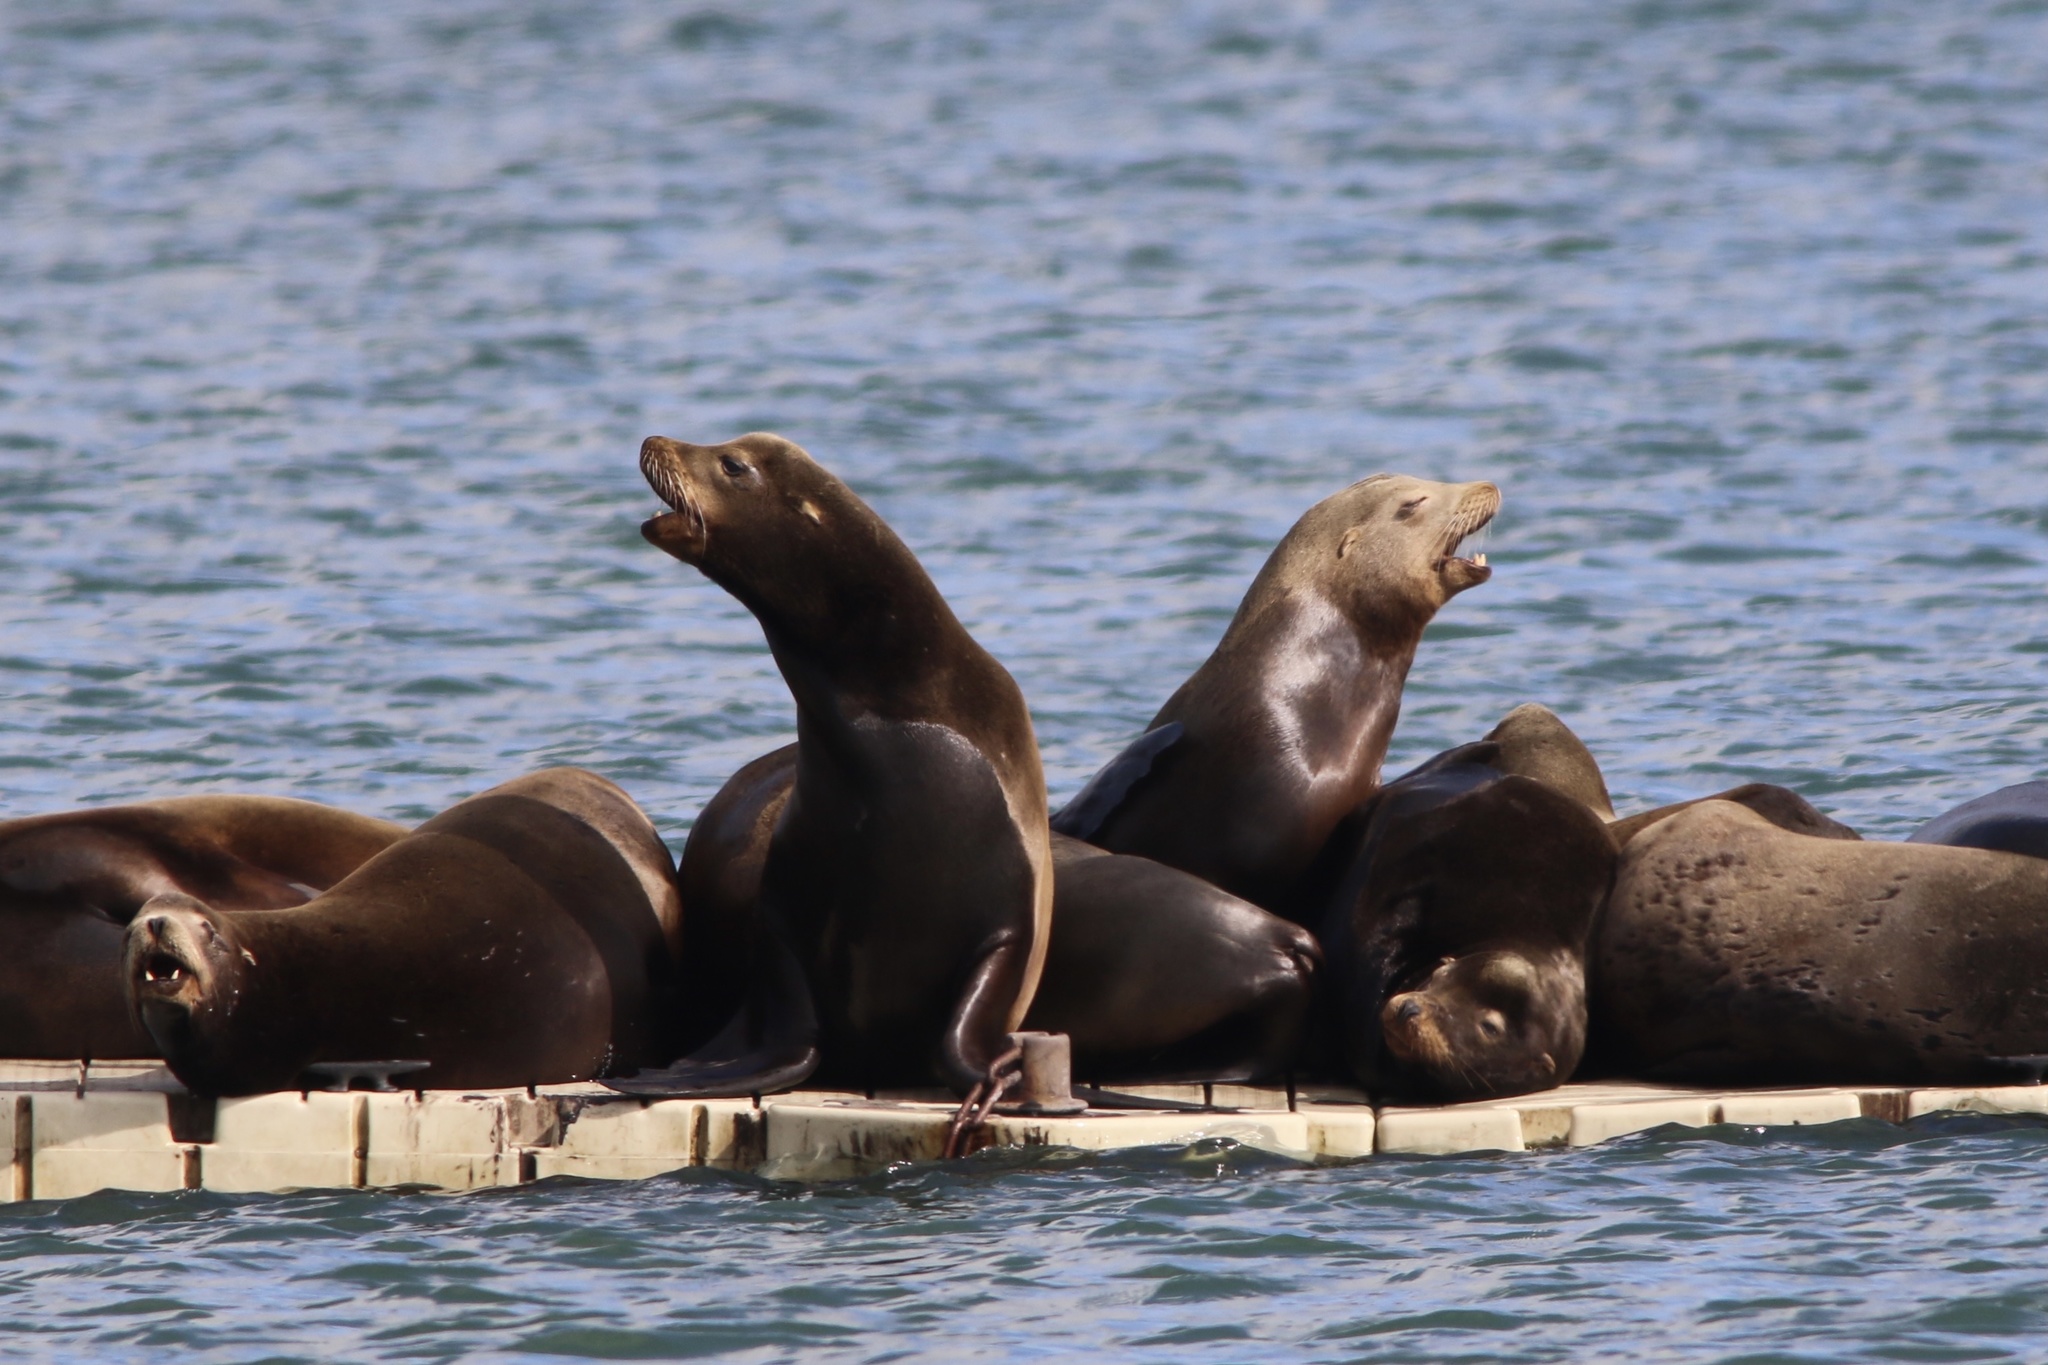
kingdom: Animalia
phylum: Chordata
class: Mammalia
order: Carnivora
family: Otariidae
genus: Zalophus
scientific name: Zalophus californianus
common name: California sea lion
